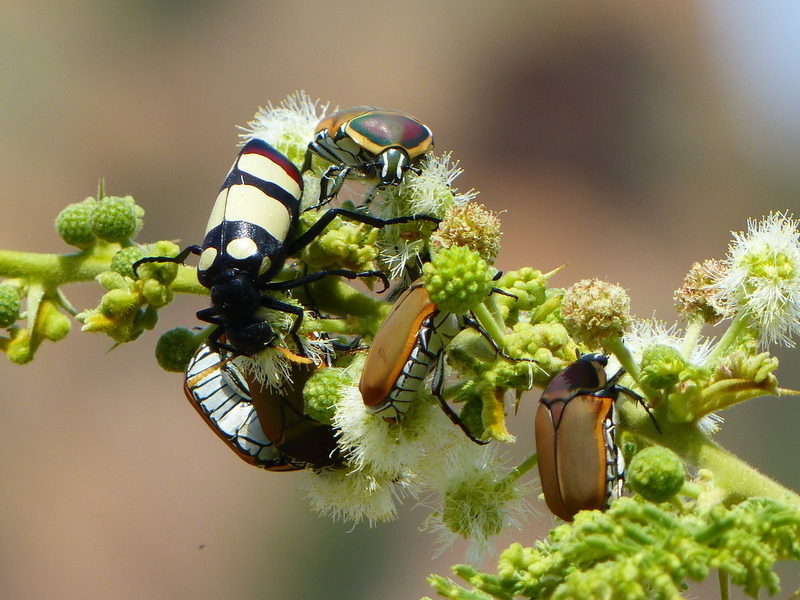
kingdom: Animalia
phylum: Arthropoda
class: Insecta
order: Coleoptera
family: Meloidae
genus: Hycleus
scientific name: Hycleus
